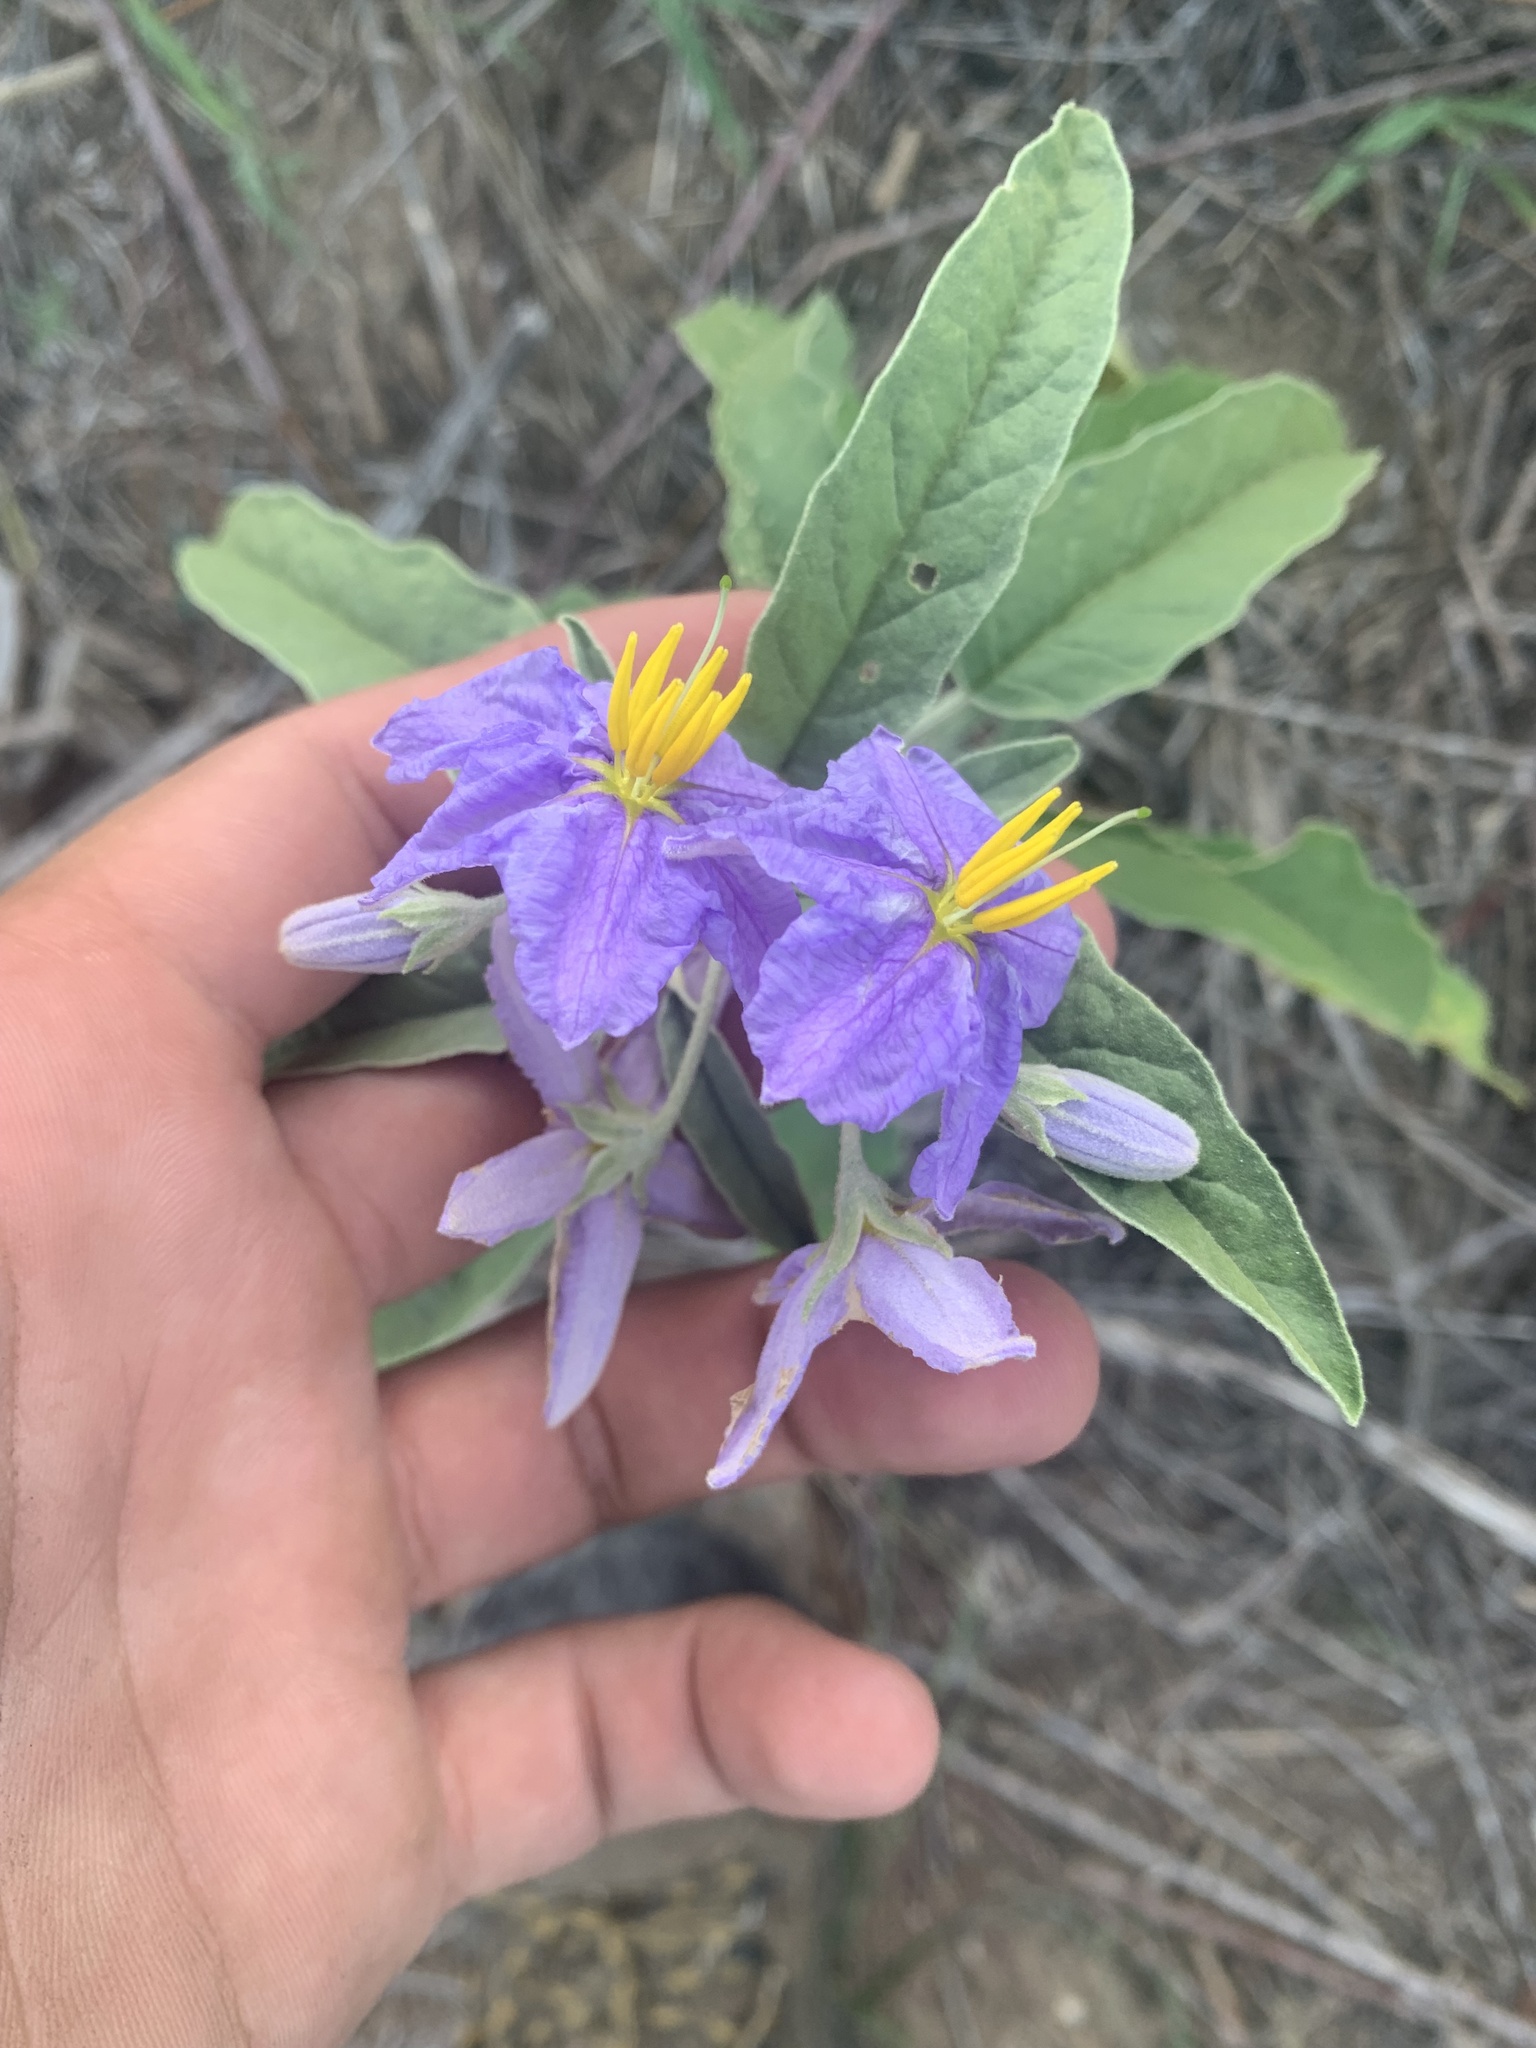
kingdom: Plantae
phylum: Tracheophyta
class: Magnoliopsida
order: Solanales
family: Solanaceae
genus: Solanum
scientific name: Solanum elaeagnifolium
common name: Silverleaf nightshade
